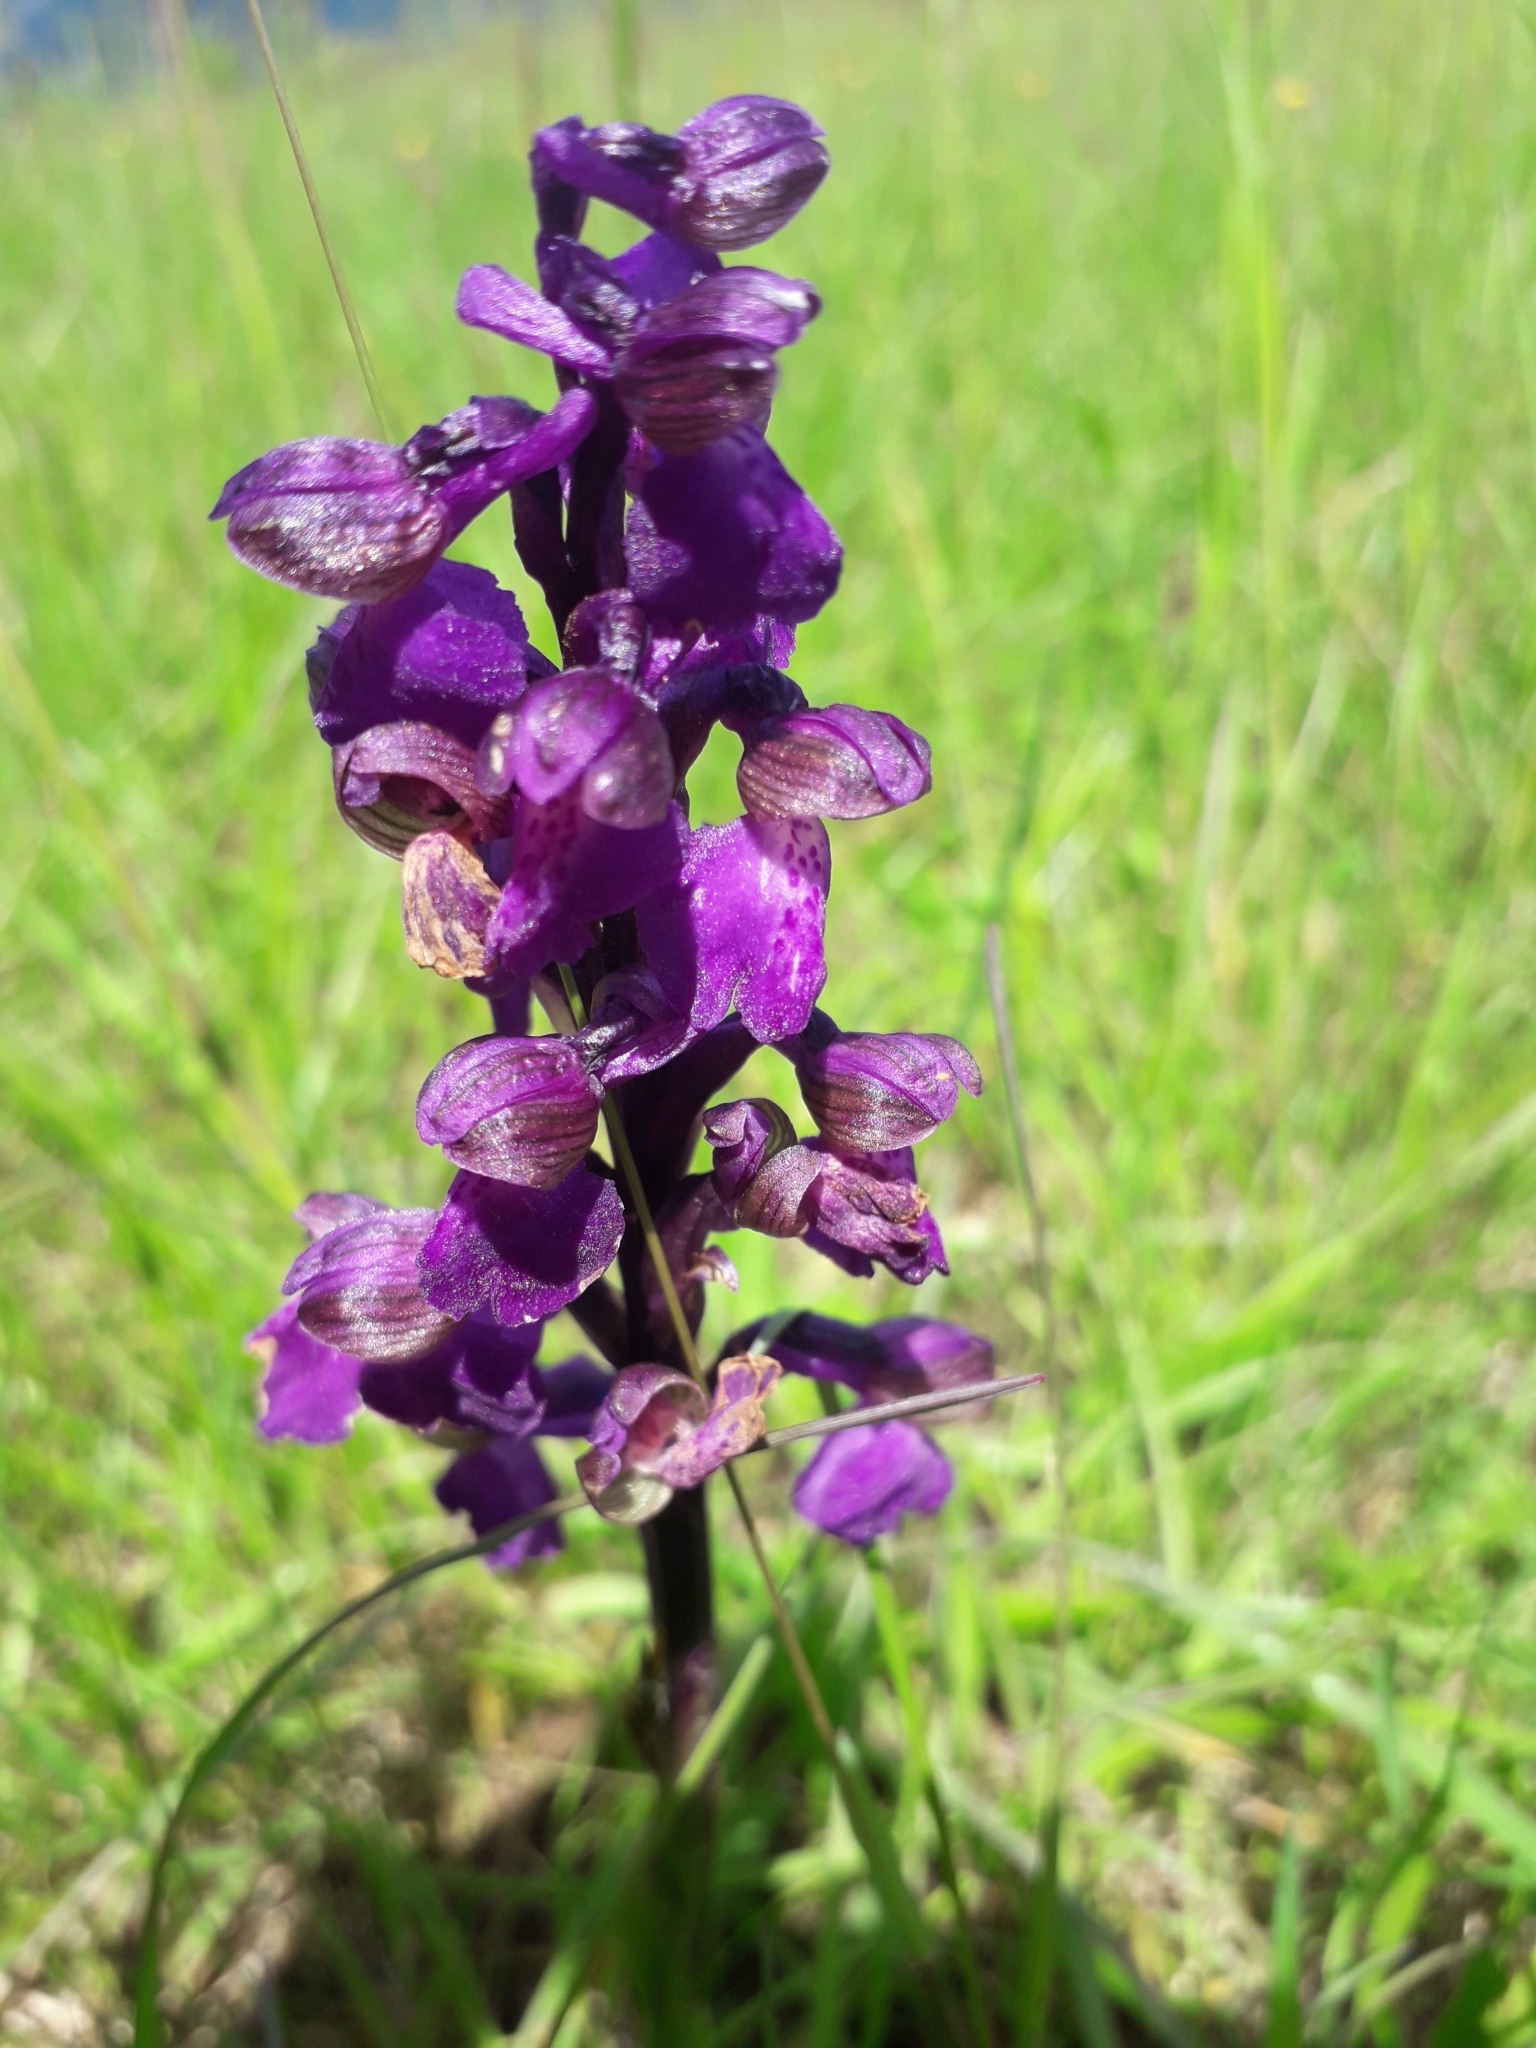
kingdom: Plantae
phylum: Tracheophyta
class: Liliopsida
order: Asparagales
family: Orchidaceae
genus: Anacamptis
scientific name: Anacamptis morio
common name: Green-winged orchid
